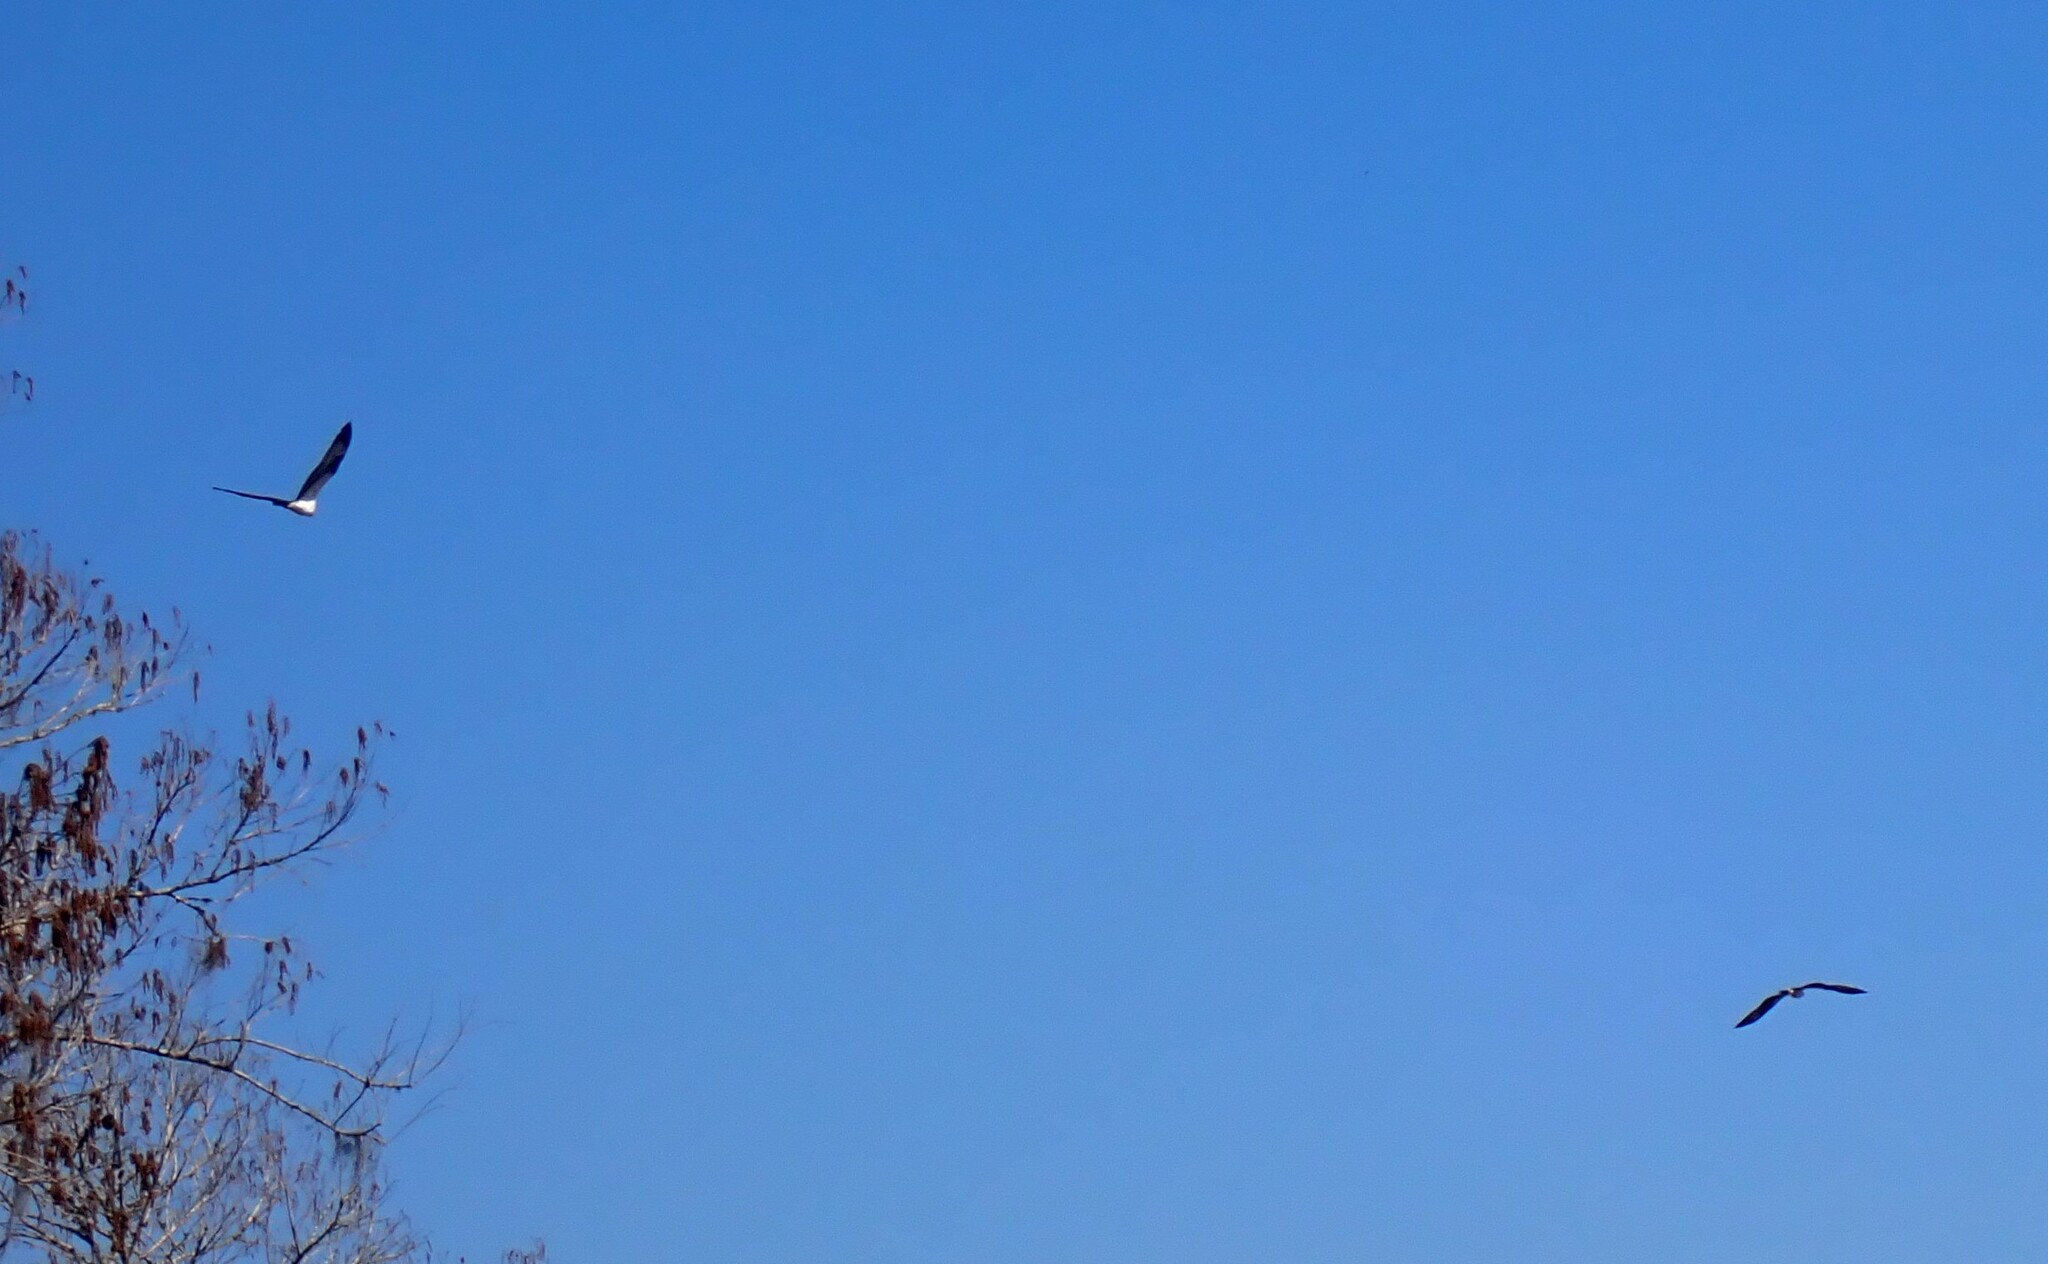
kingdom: Animalia
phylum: Chordata
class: Aves
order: Accipitriformes
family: Pandionidae
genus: Pandion
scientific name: Pandion haliaetus
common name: Osprey
